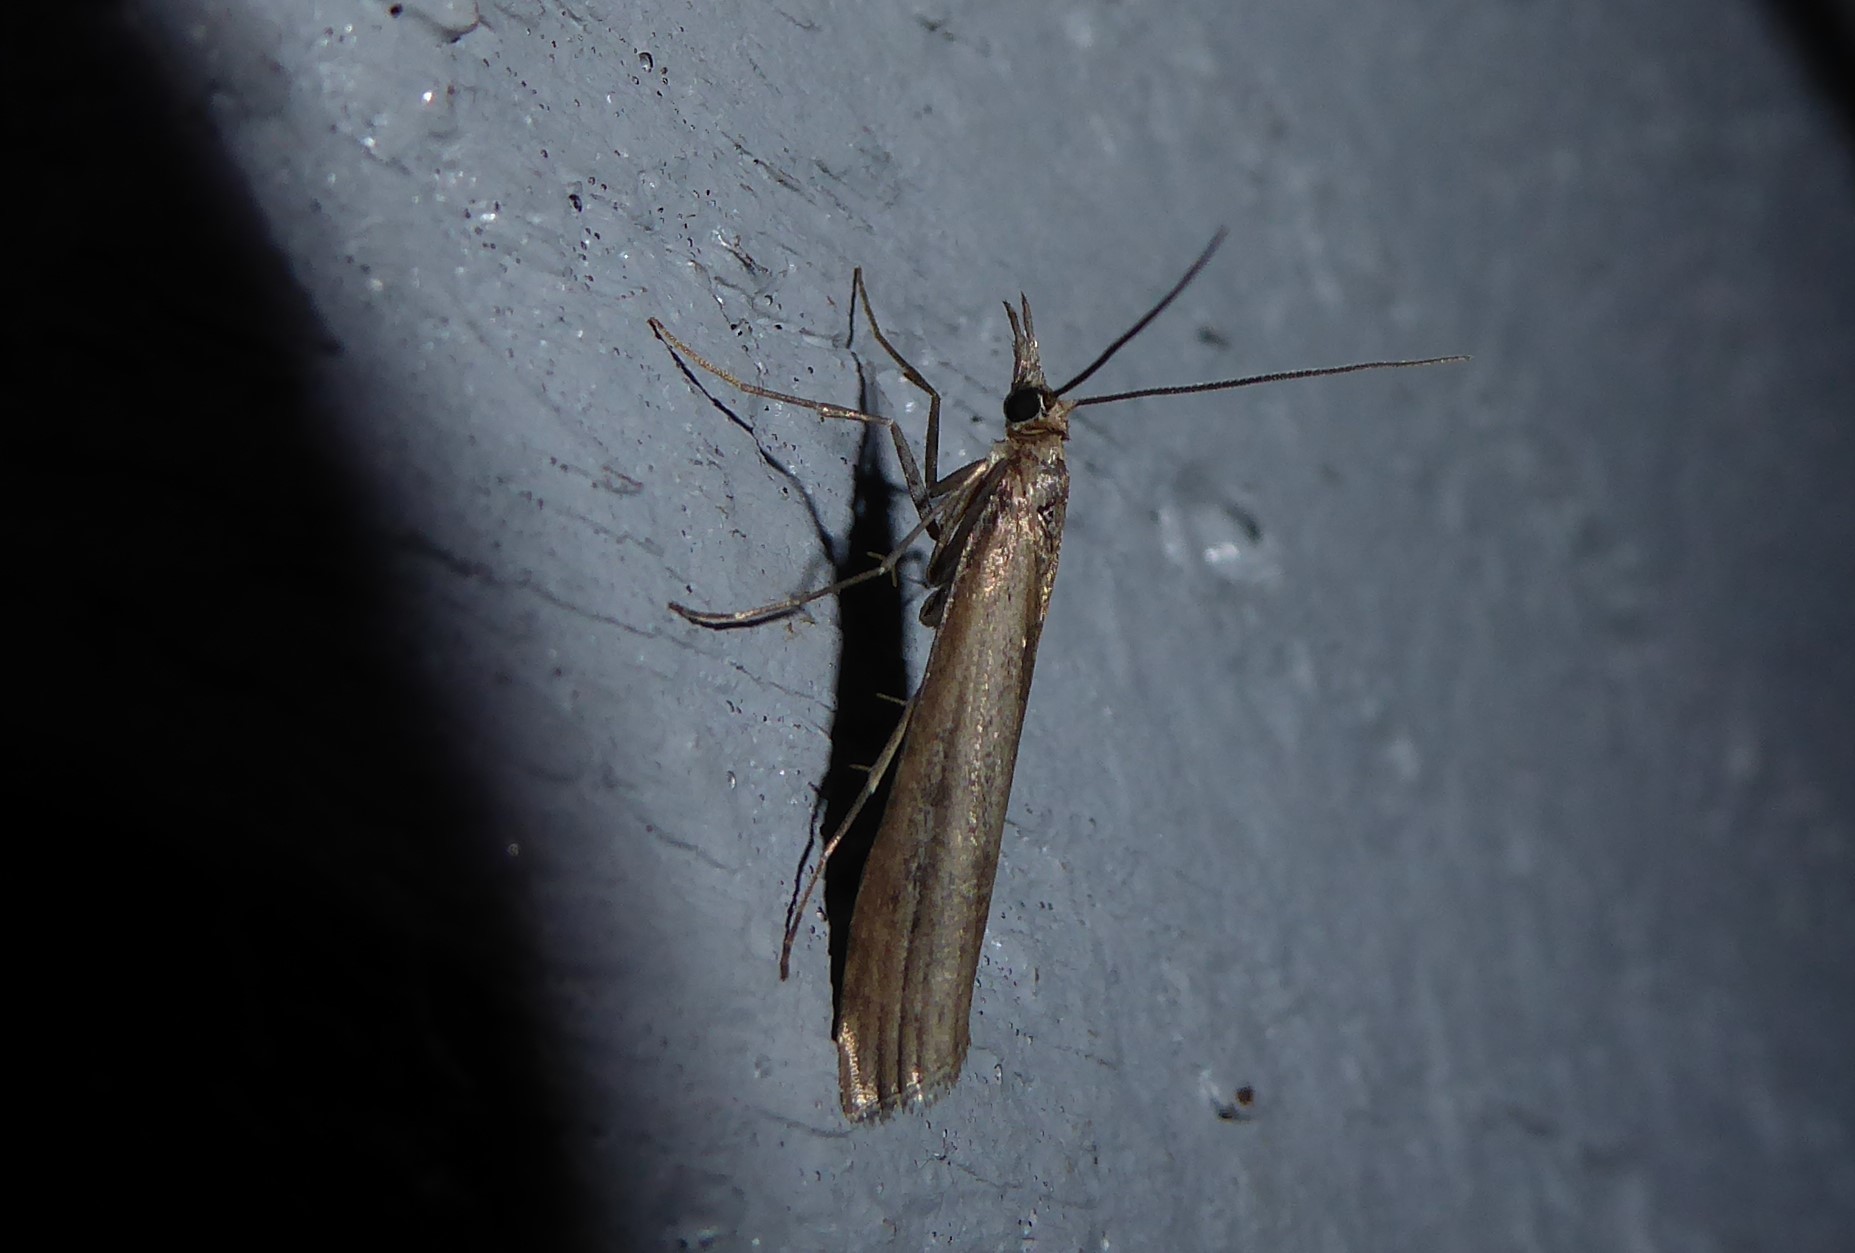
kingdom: Animalia
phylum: Arthropoda
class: Insecta
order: Lepidoptera
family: Crambidae
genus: Orocrambus
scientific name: Orocrambus cyclopicus
